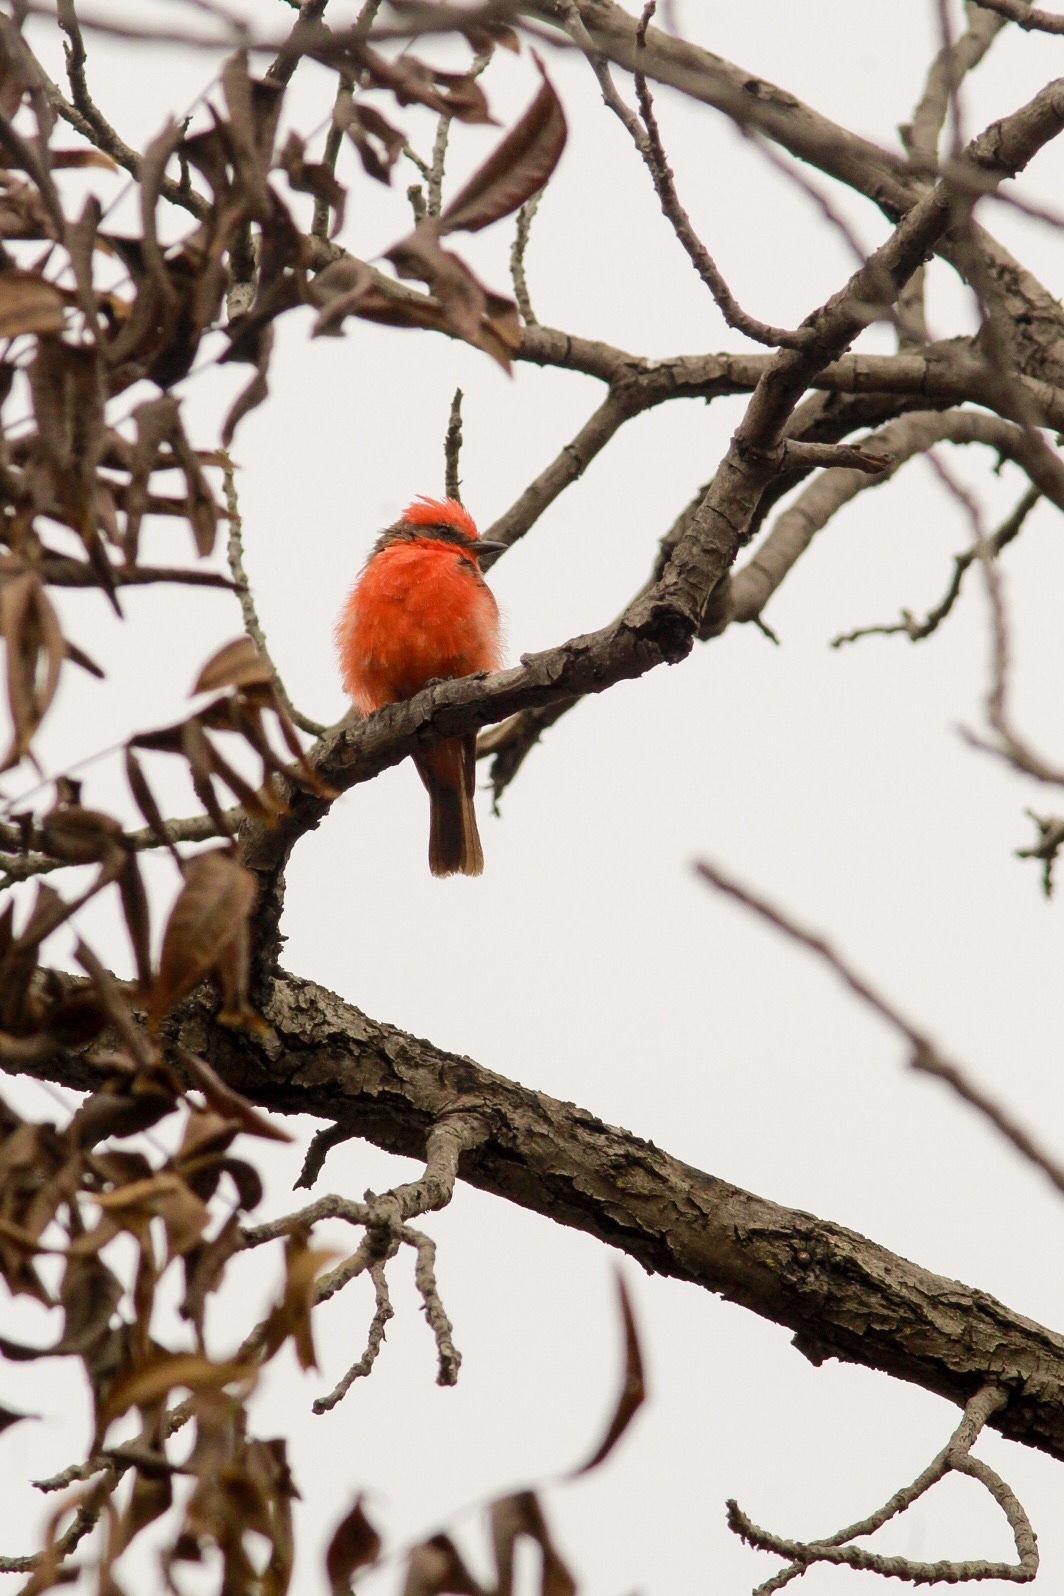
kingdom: Animalia
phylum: Chordata
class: Aves
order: Passeriformes
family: Tyrannidae
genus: Pyrocephalus
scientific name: Pyrocephalus rubinus
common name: Vermilion flycatcher
